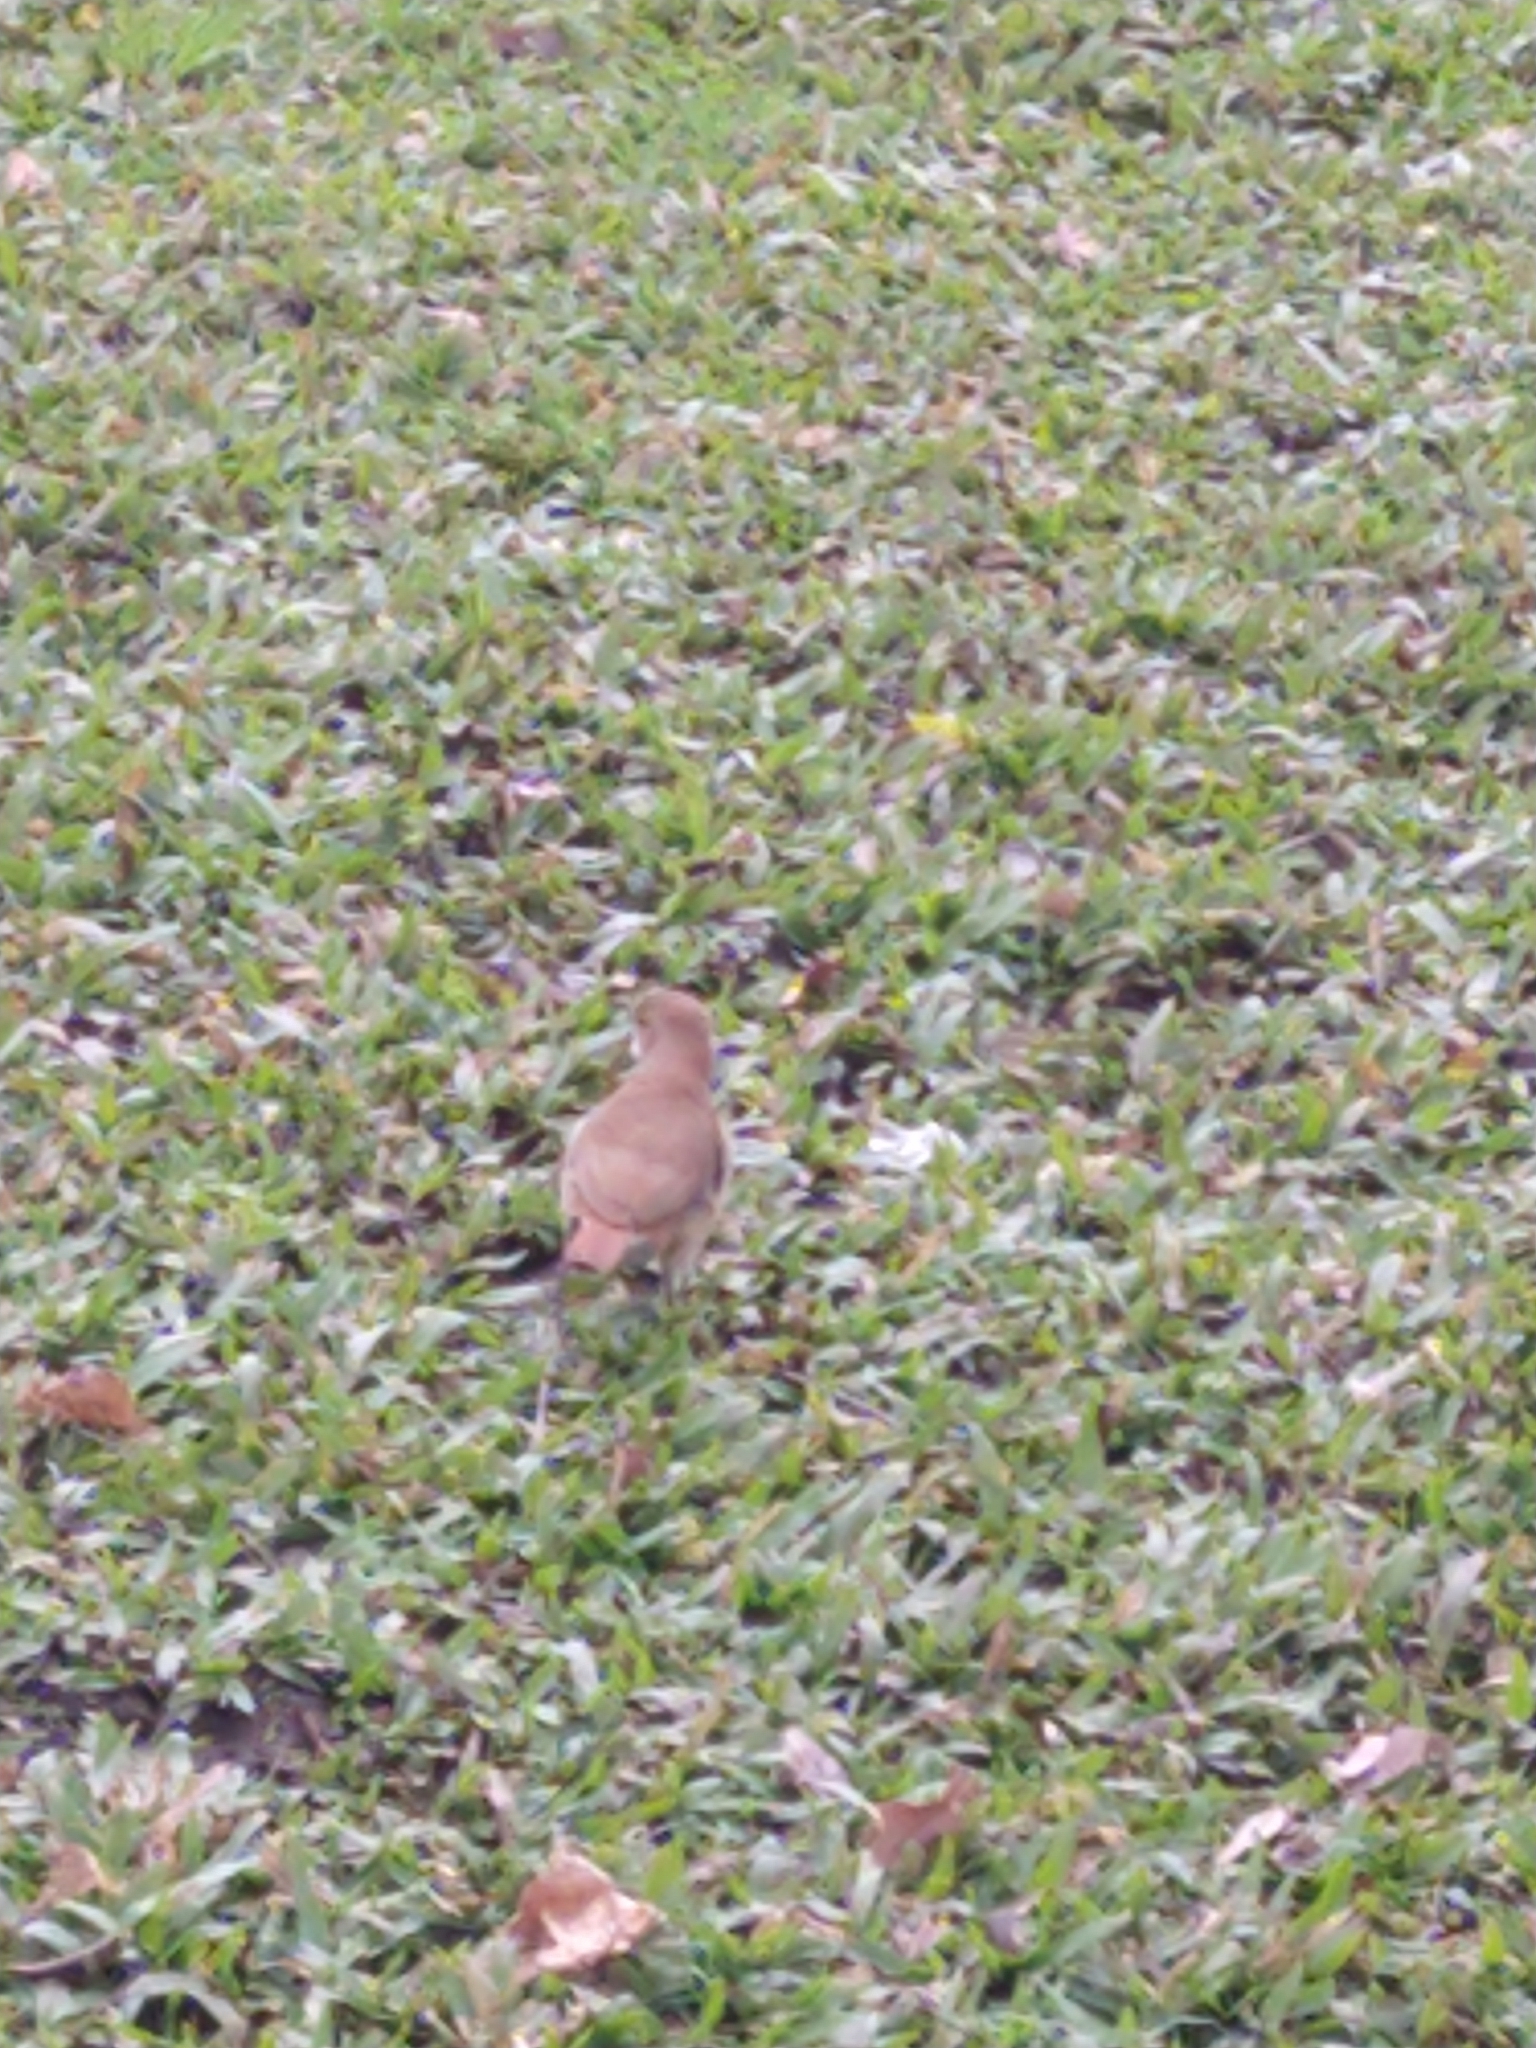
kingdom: Animalia
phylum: Chordata
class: Aves
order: Passeriformes
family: Furnariidae
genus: Furnarius
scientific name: Furnarius rufus
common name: Rufous hornero
